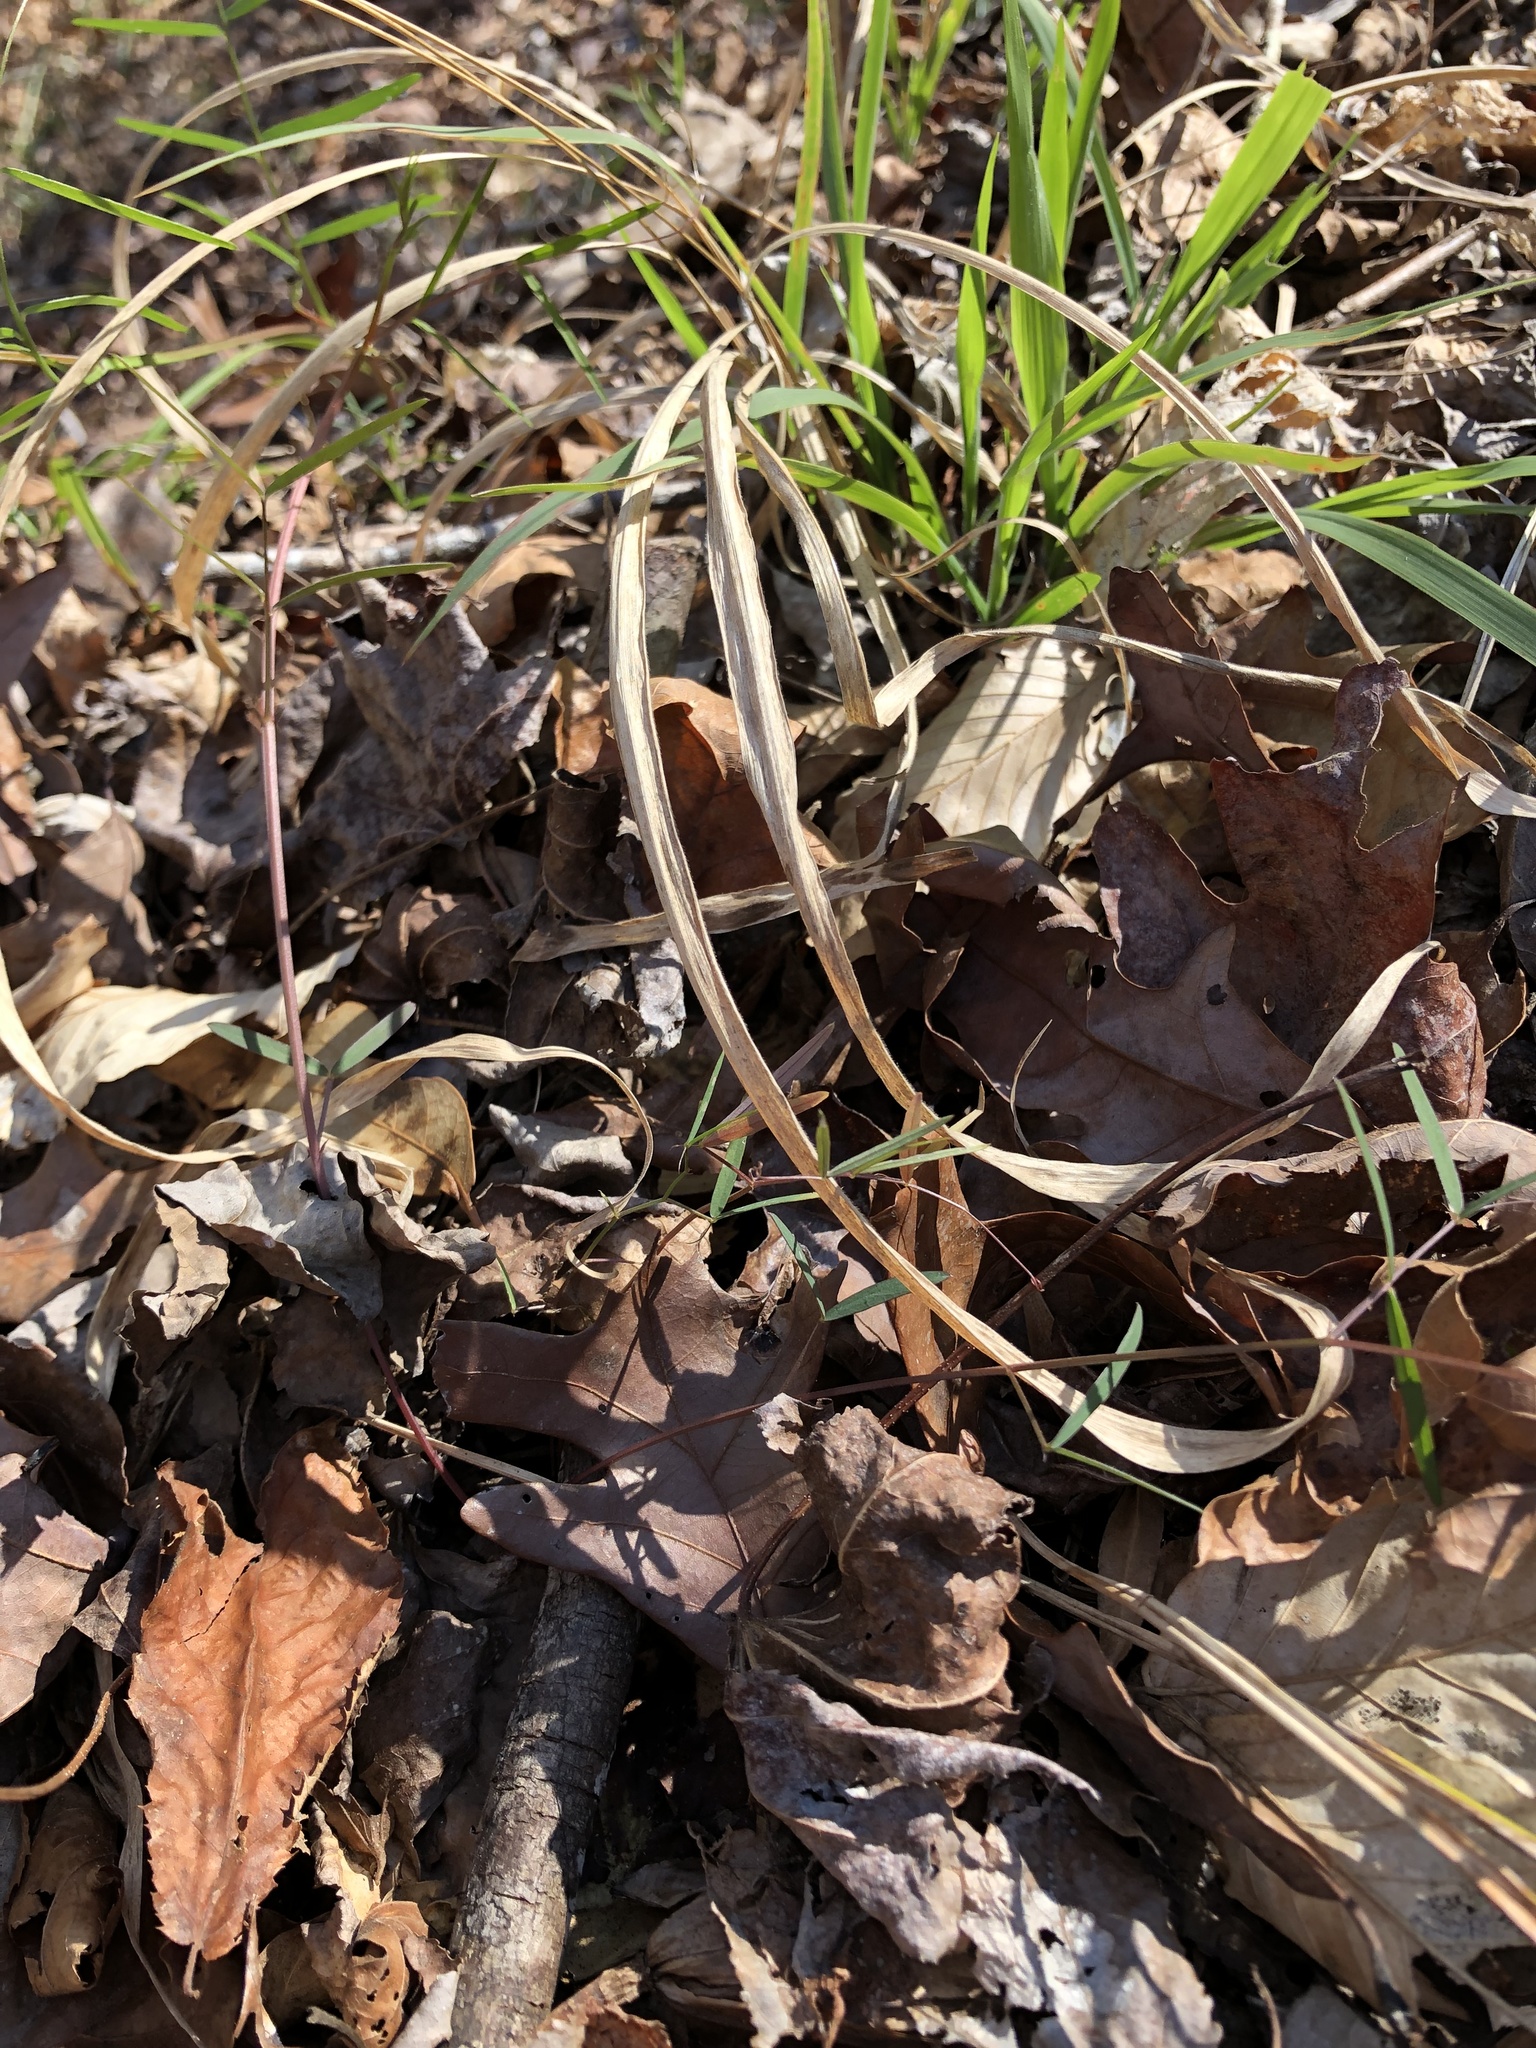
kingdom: Plantae
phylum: Tracheophyta
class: Magnoliopsida
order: Fabales
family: Fabaceae
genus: Vicia
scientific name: Vicia minutiflora
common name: Pygmy-flower vetch
